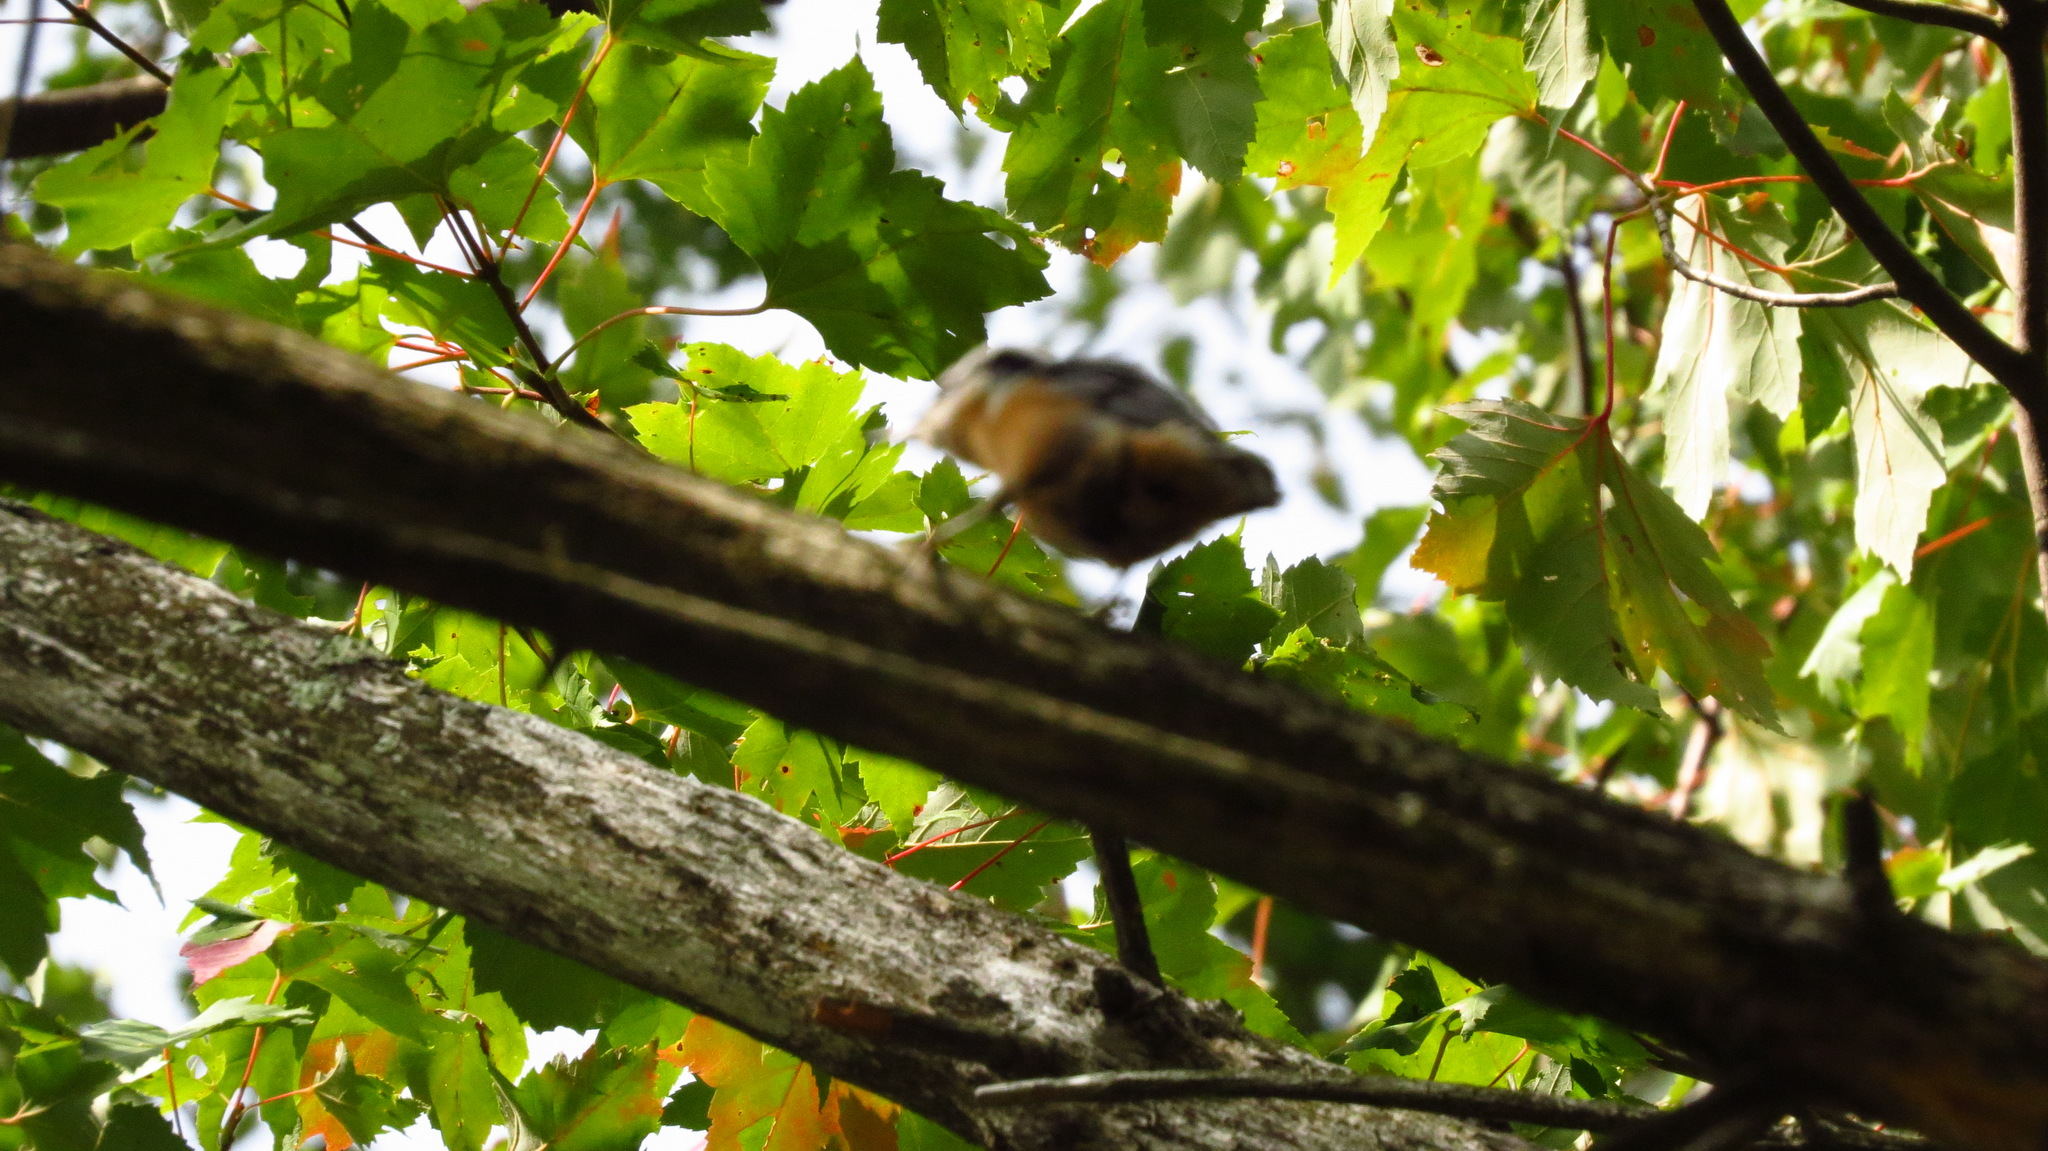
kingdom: Animalia
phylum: Chordata
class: Aves
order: Passeriformes
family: Sittidae
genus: Sitta
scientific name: Sitta canadensis
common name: Red-breasted nuthatch
